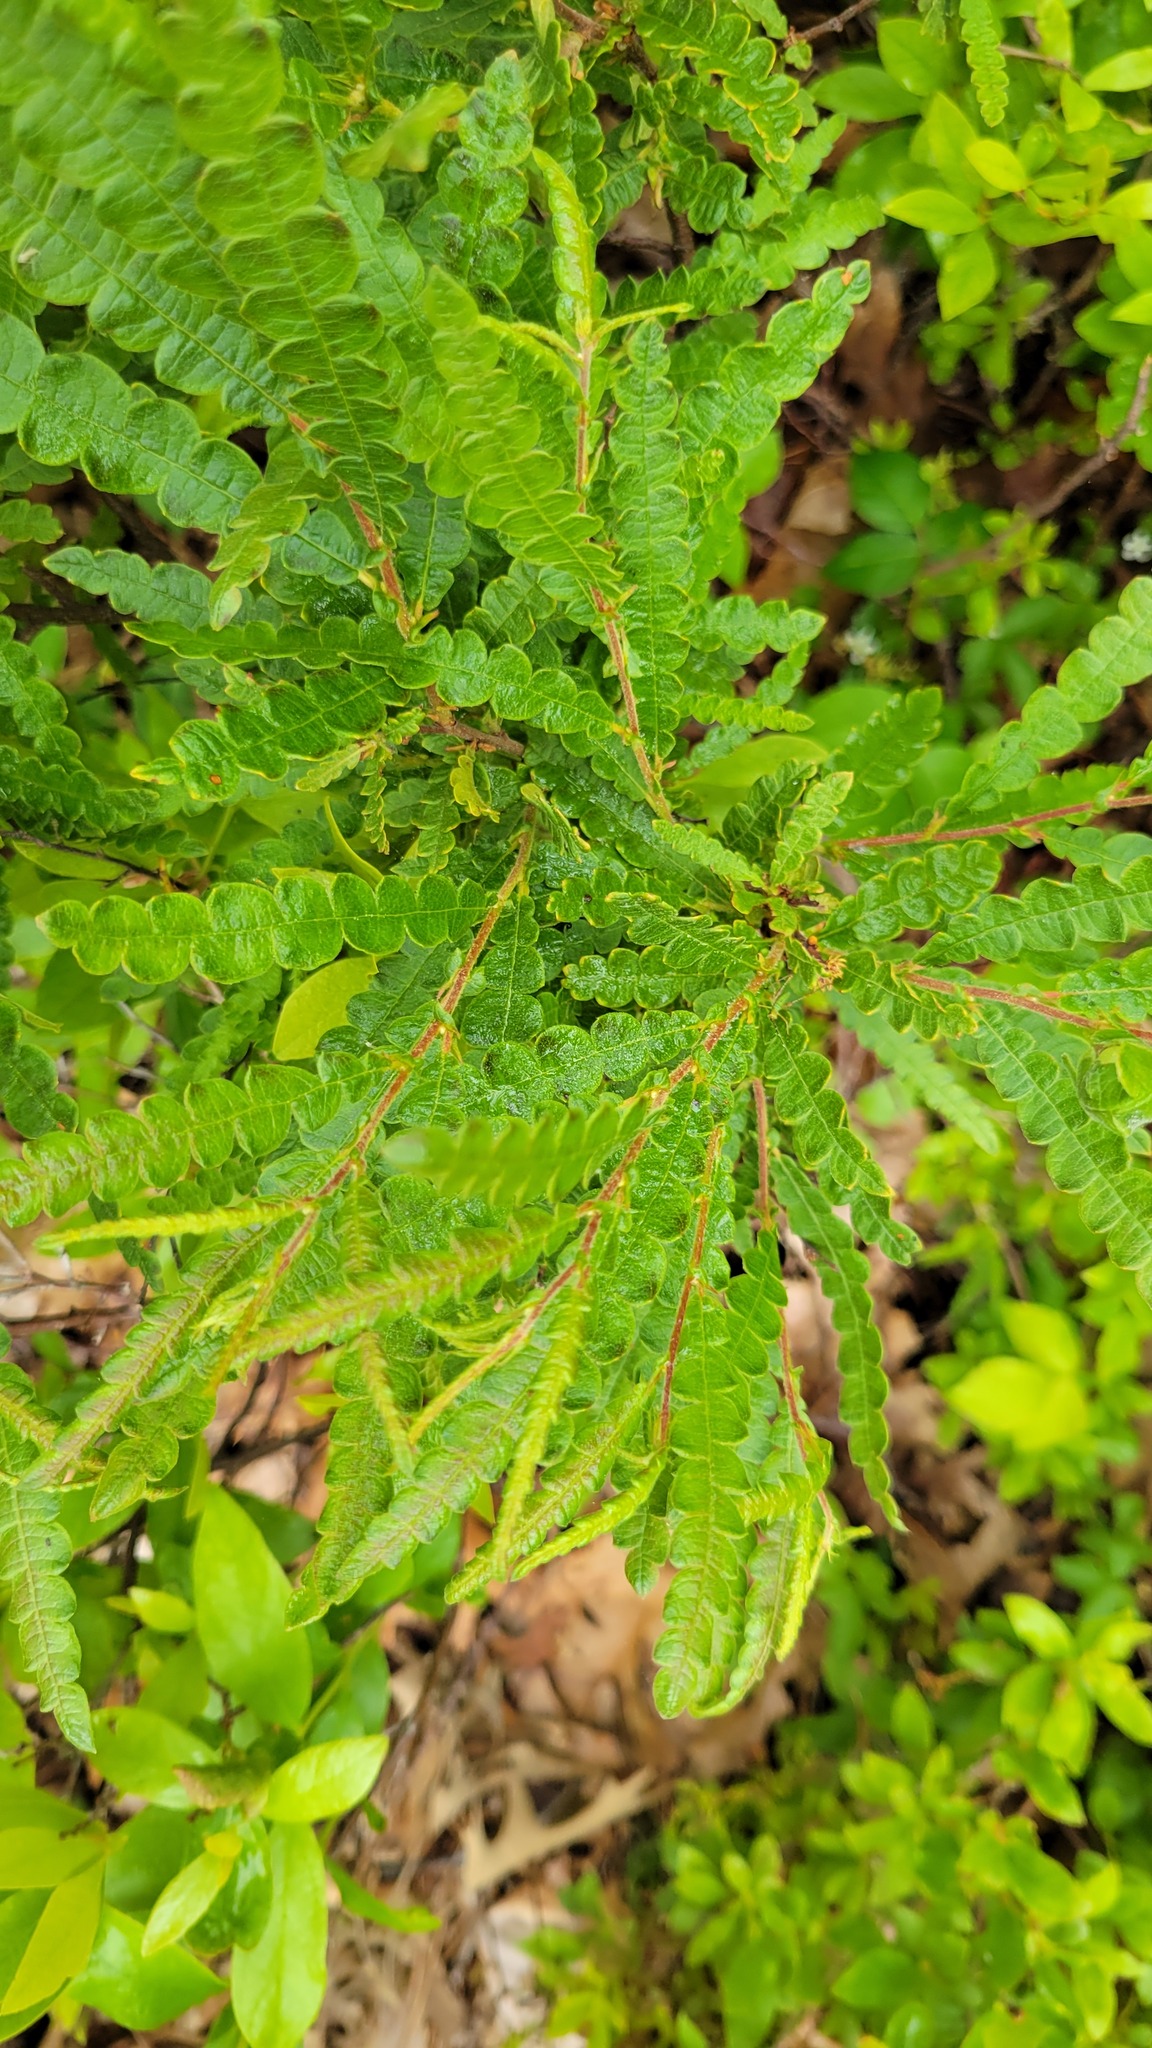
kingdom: Plantae
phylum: Tracheophyta
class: Magnoliopsida
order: Fagales
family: Myricaceae
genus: Comptonia
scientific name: Comptonia peregrina
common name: Sweet-fern
